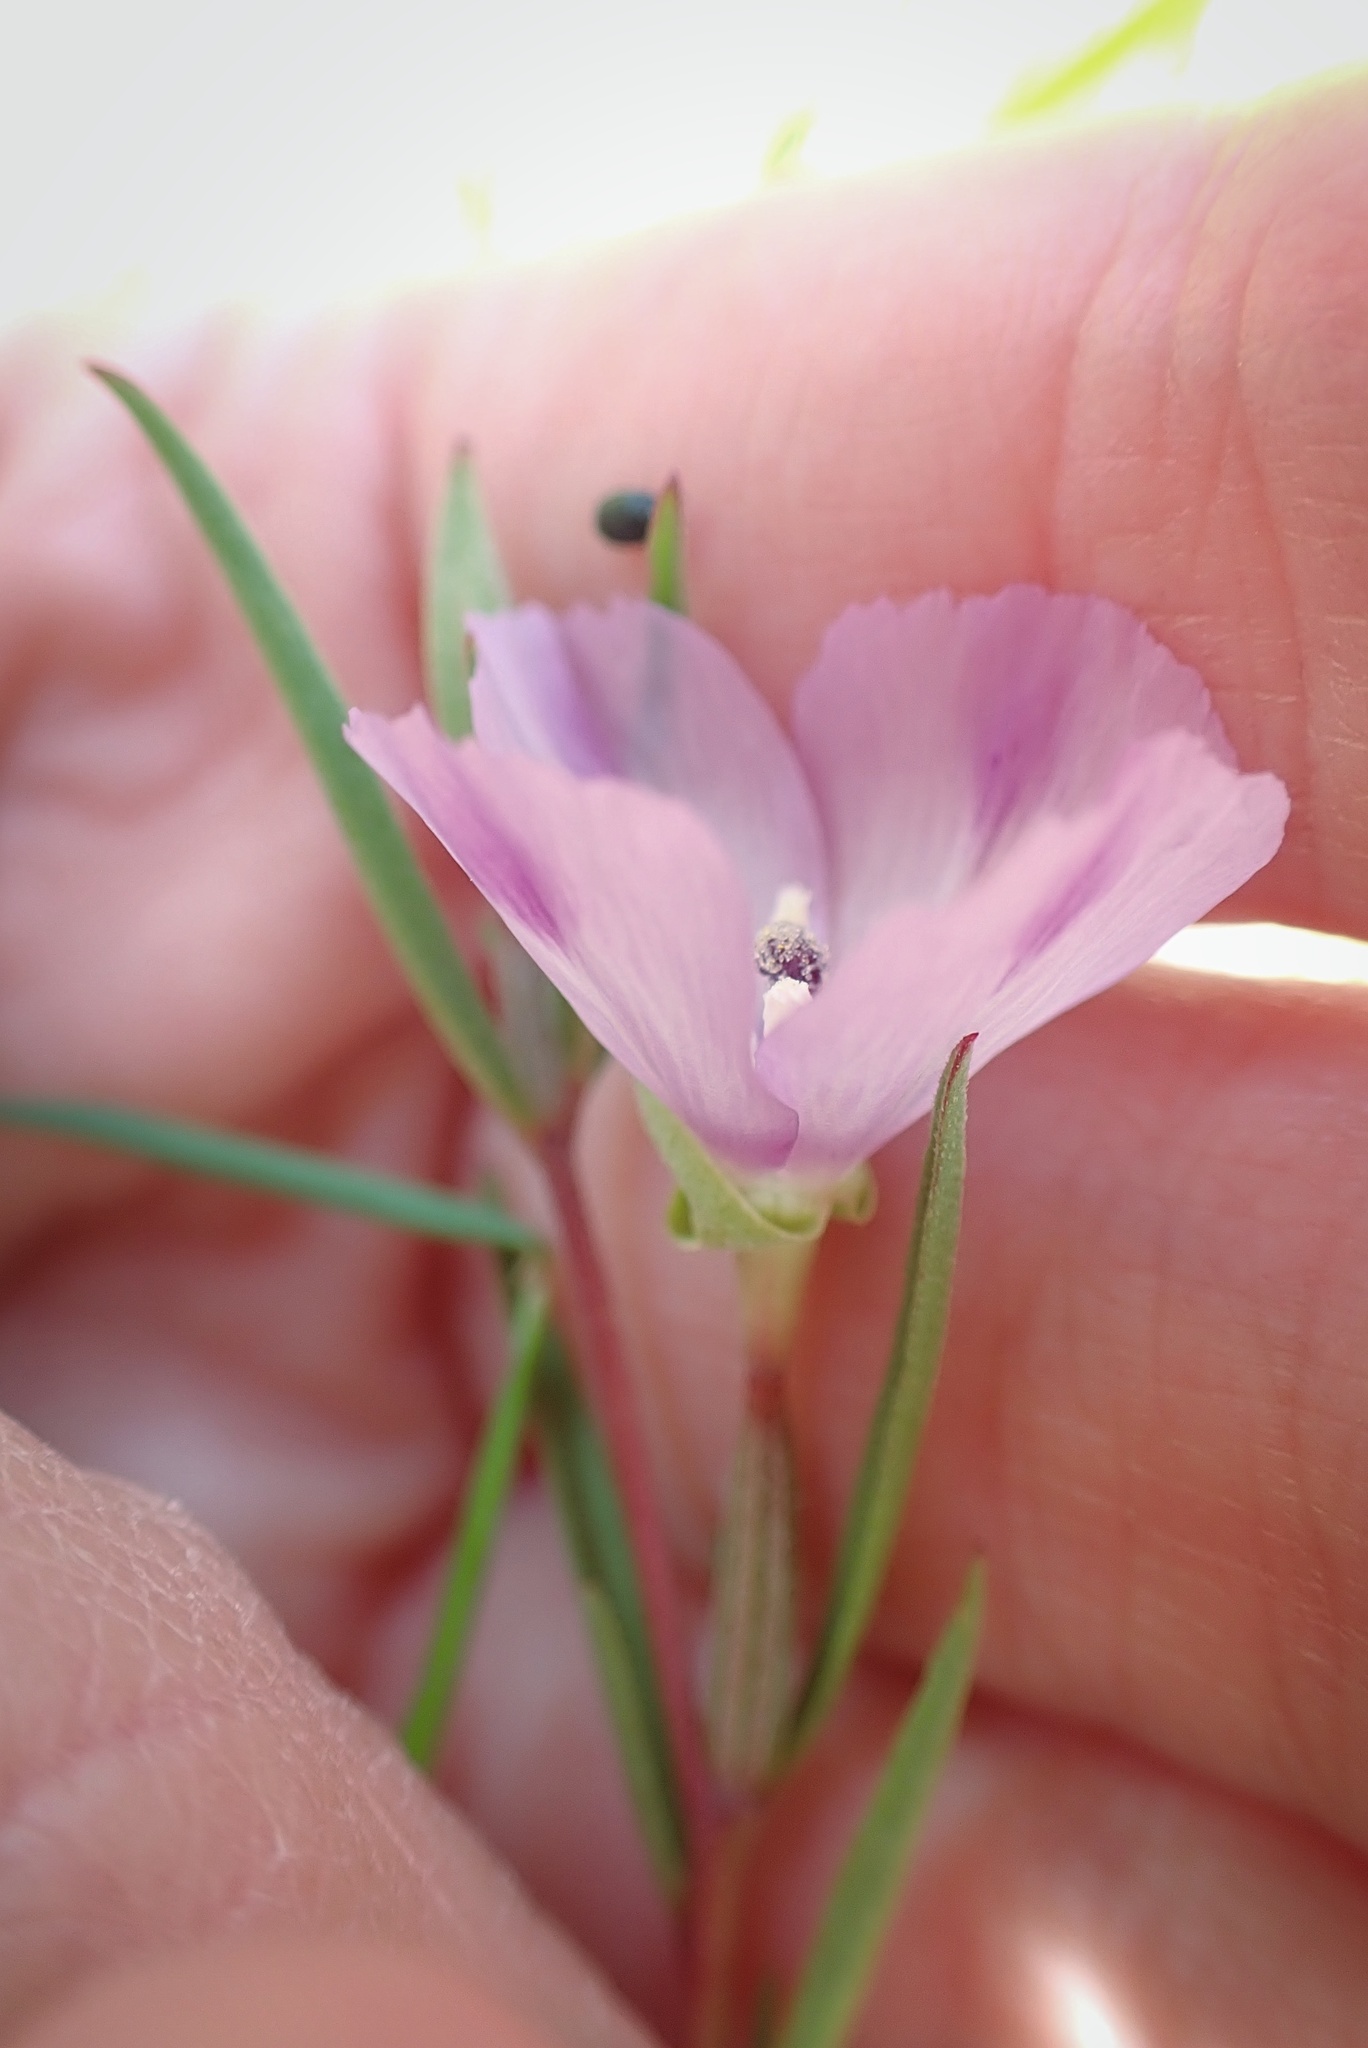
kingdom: Plantae
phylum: Tracheophyta
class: Magnoliopsida
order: Myrtales
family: Onagraceae
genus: Clarkia
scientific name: Clarkia purpurea
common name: Purple clarkia
